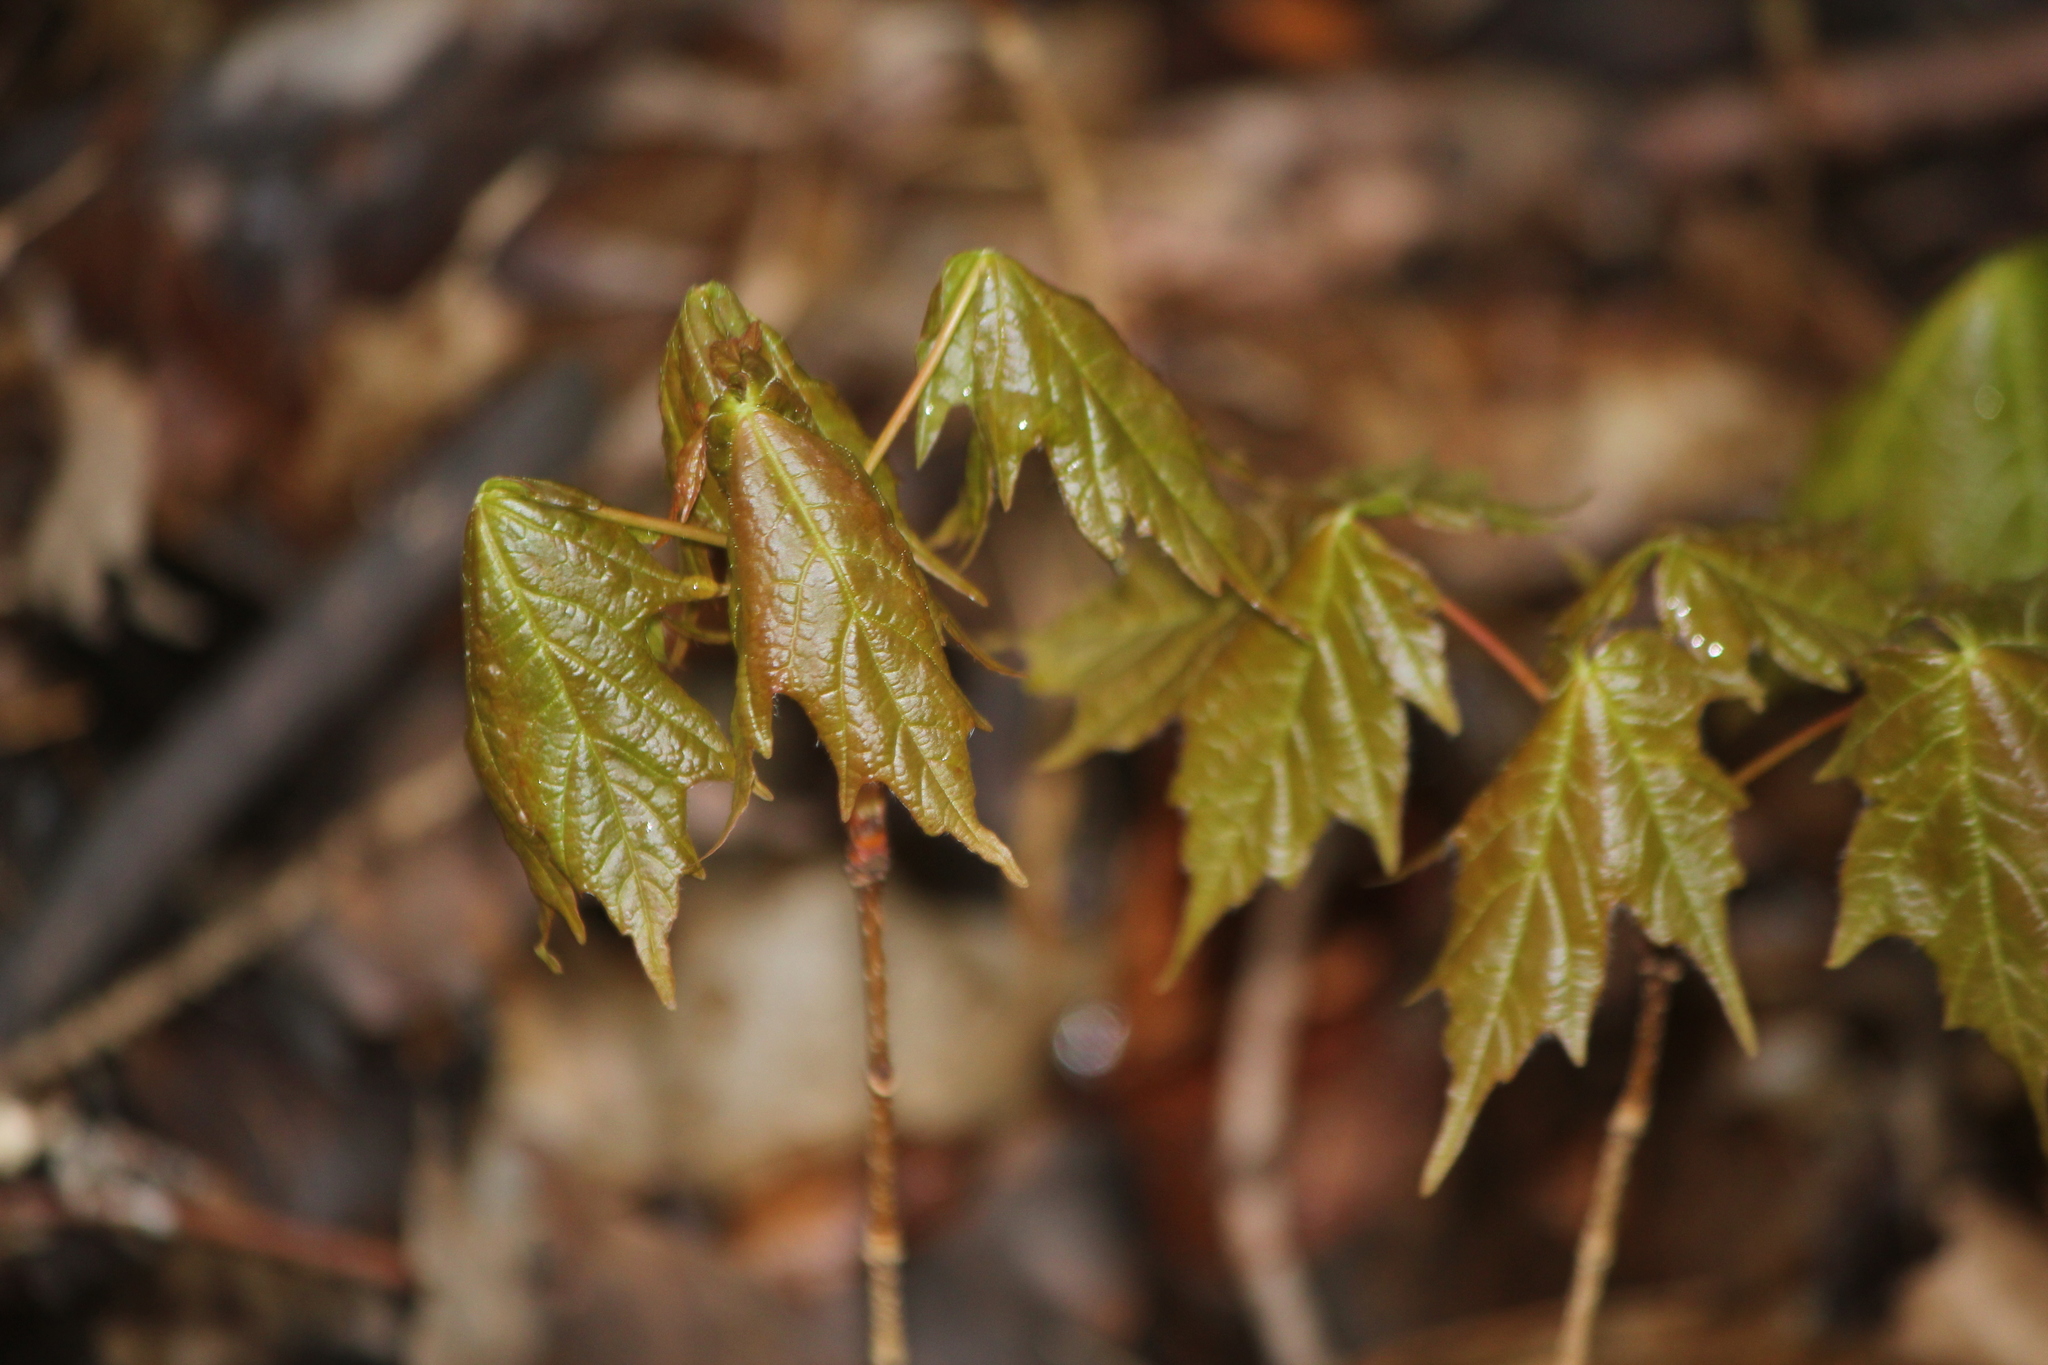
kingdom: Plantae
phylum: Tracheophyta
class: Magnoliopsida
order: Sapindales
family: Sapindaceae
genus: Acer
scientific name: Acer saccharum
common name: Sugar maple
